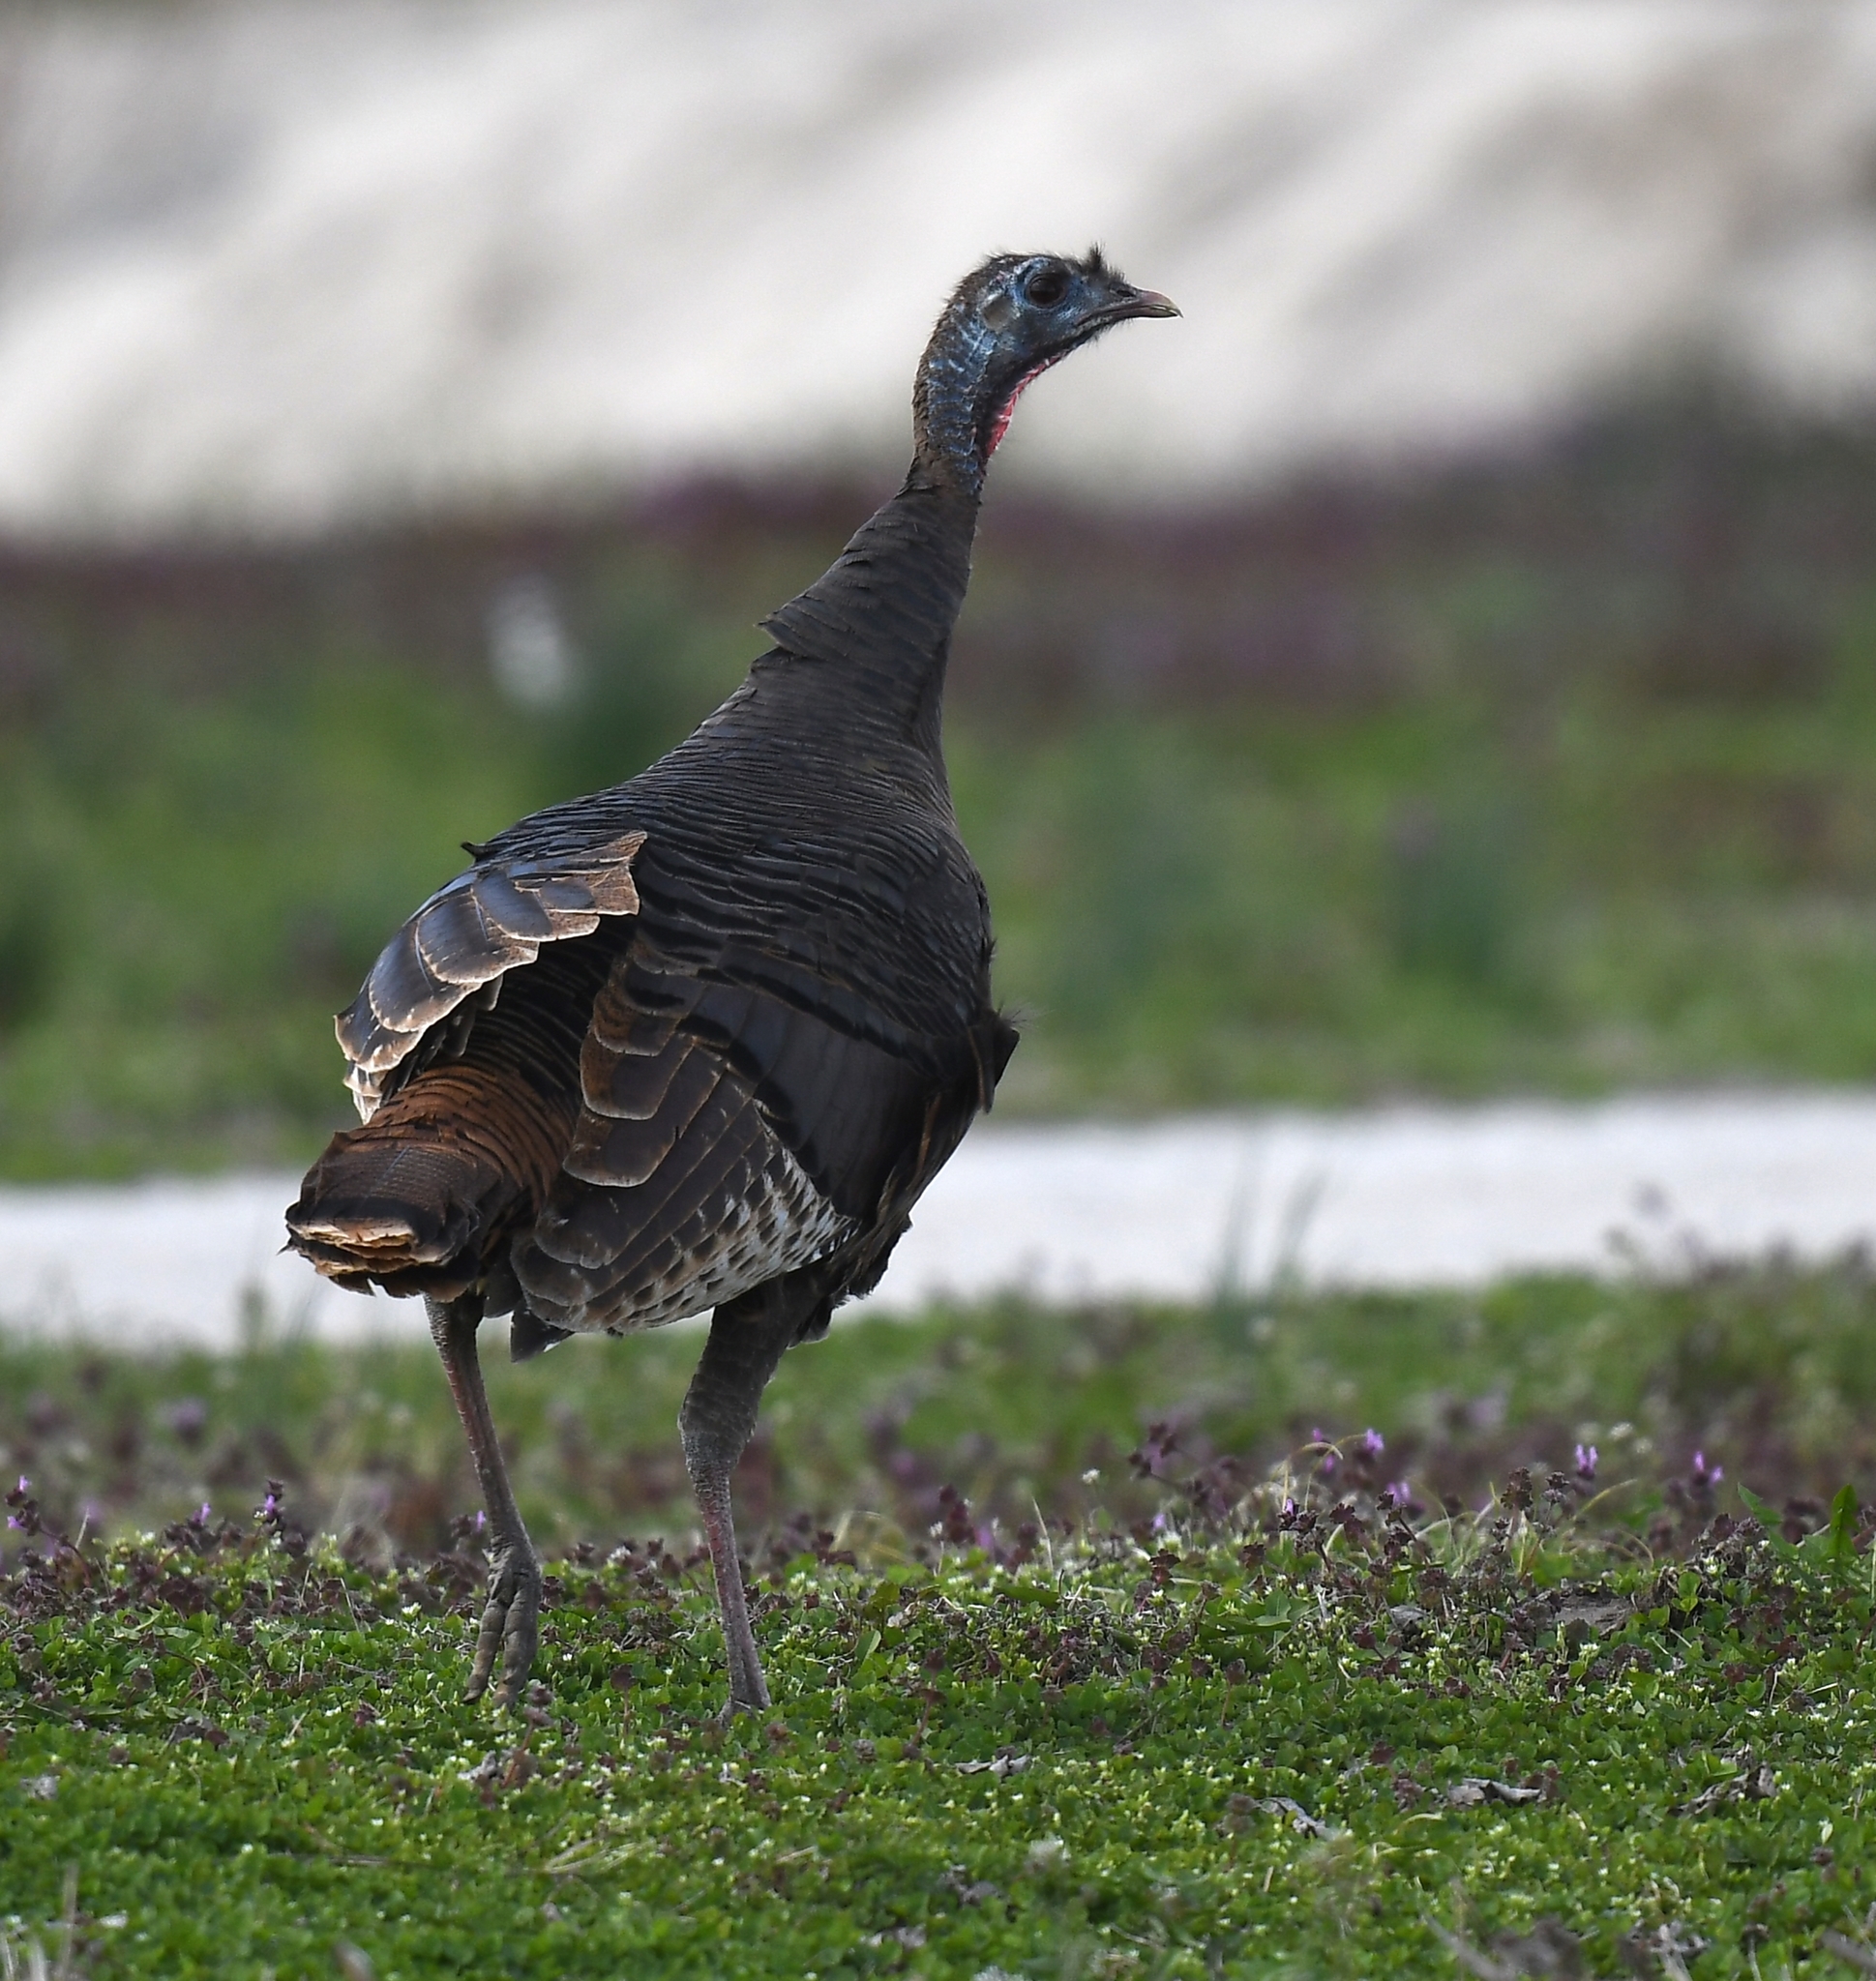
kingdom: Animalia
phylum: Chordata
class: Aves
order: Galliformes
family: Phasianidae
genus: Meleagris
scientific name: Meleagris gallopavo
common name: Wild turkey
